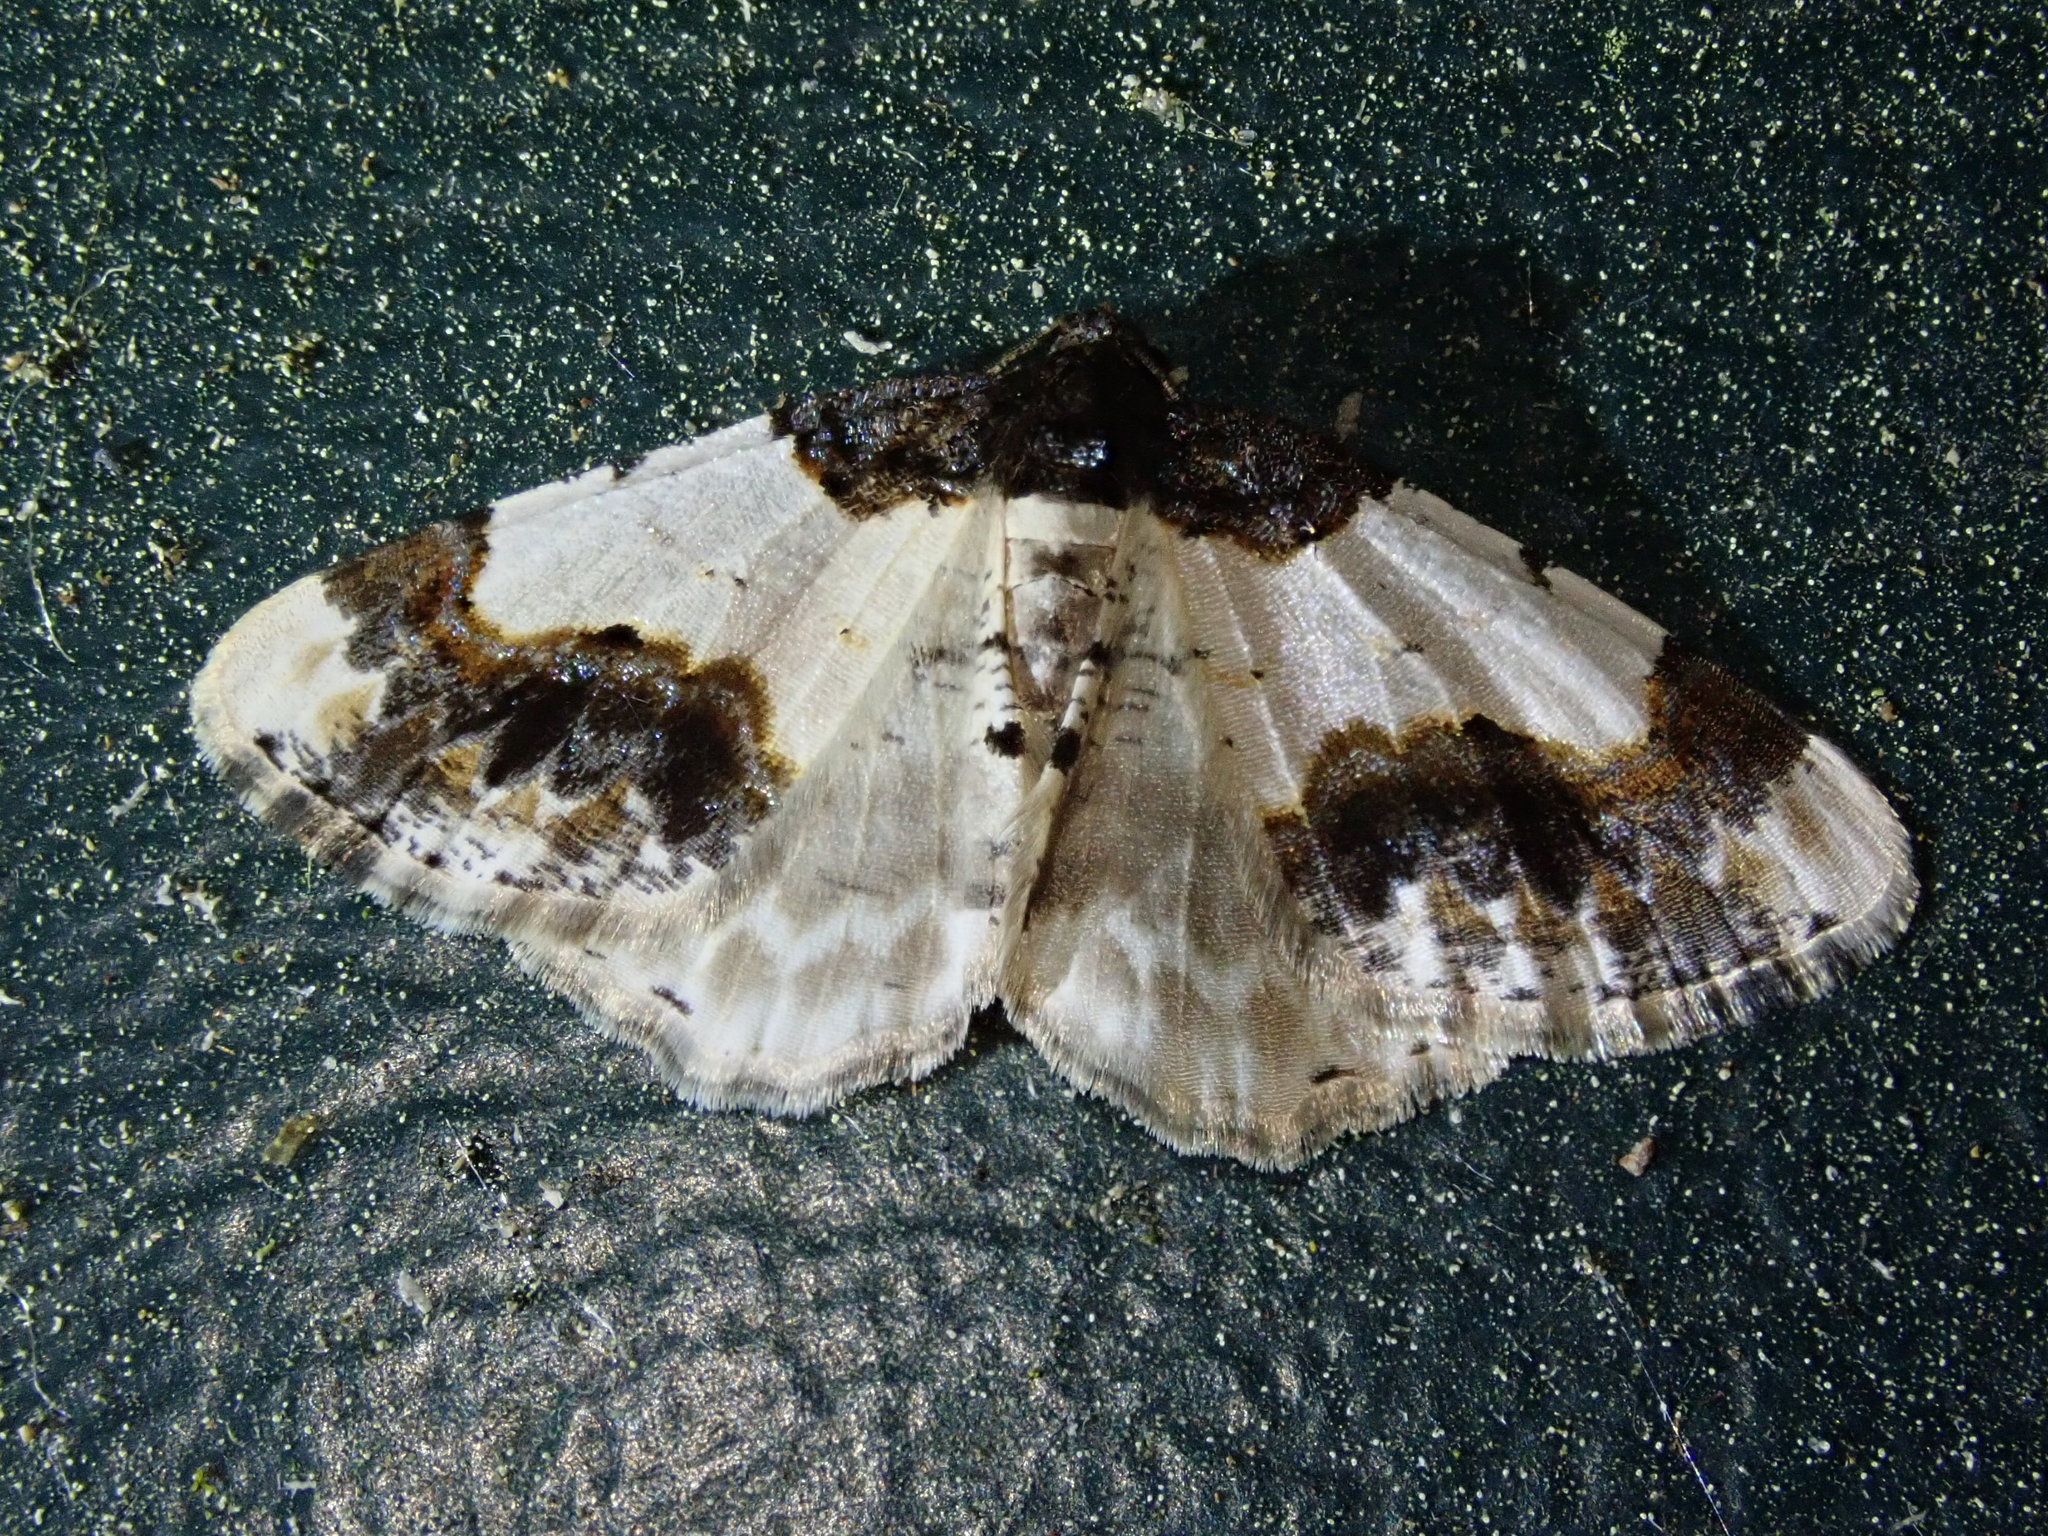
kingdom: Animalia
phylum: Arthropoda
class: Insecta
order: Lepidoptera
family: Geometridae
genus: Ligdia
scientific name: Ligdia adustata
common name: Scorched carpet
